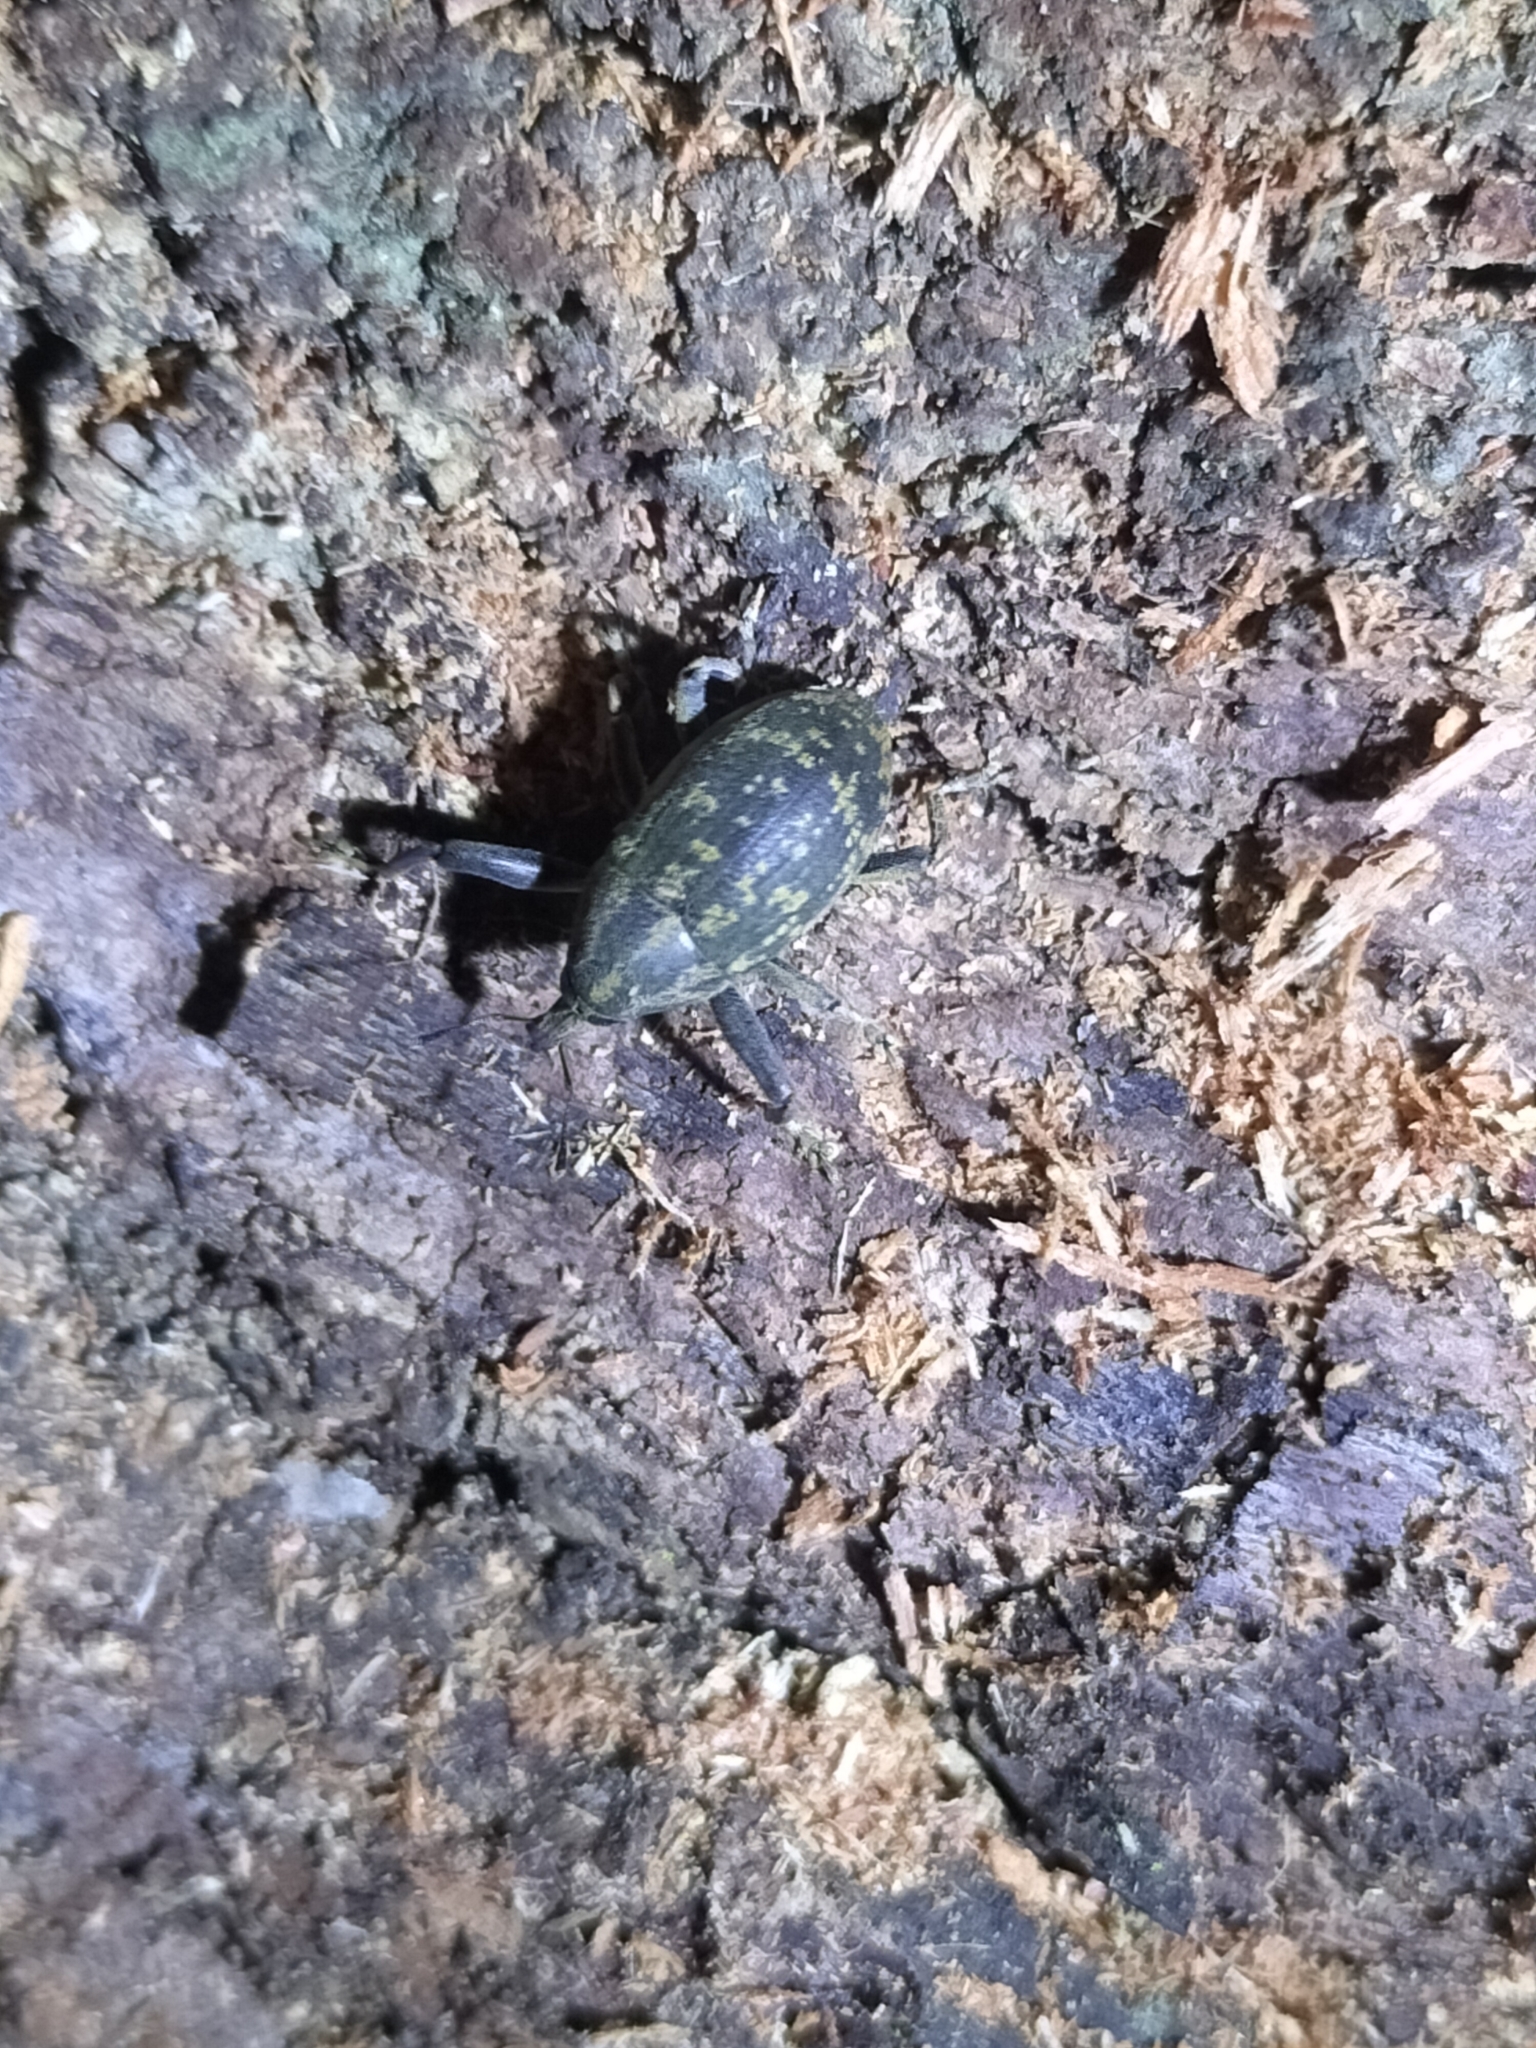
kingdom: Animalia
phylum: Arthropoda
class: Insecta
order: Coleoptera
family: Curculionidae
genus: Perissops
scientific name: Perissops multimaculatus
